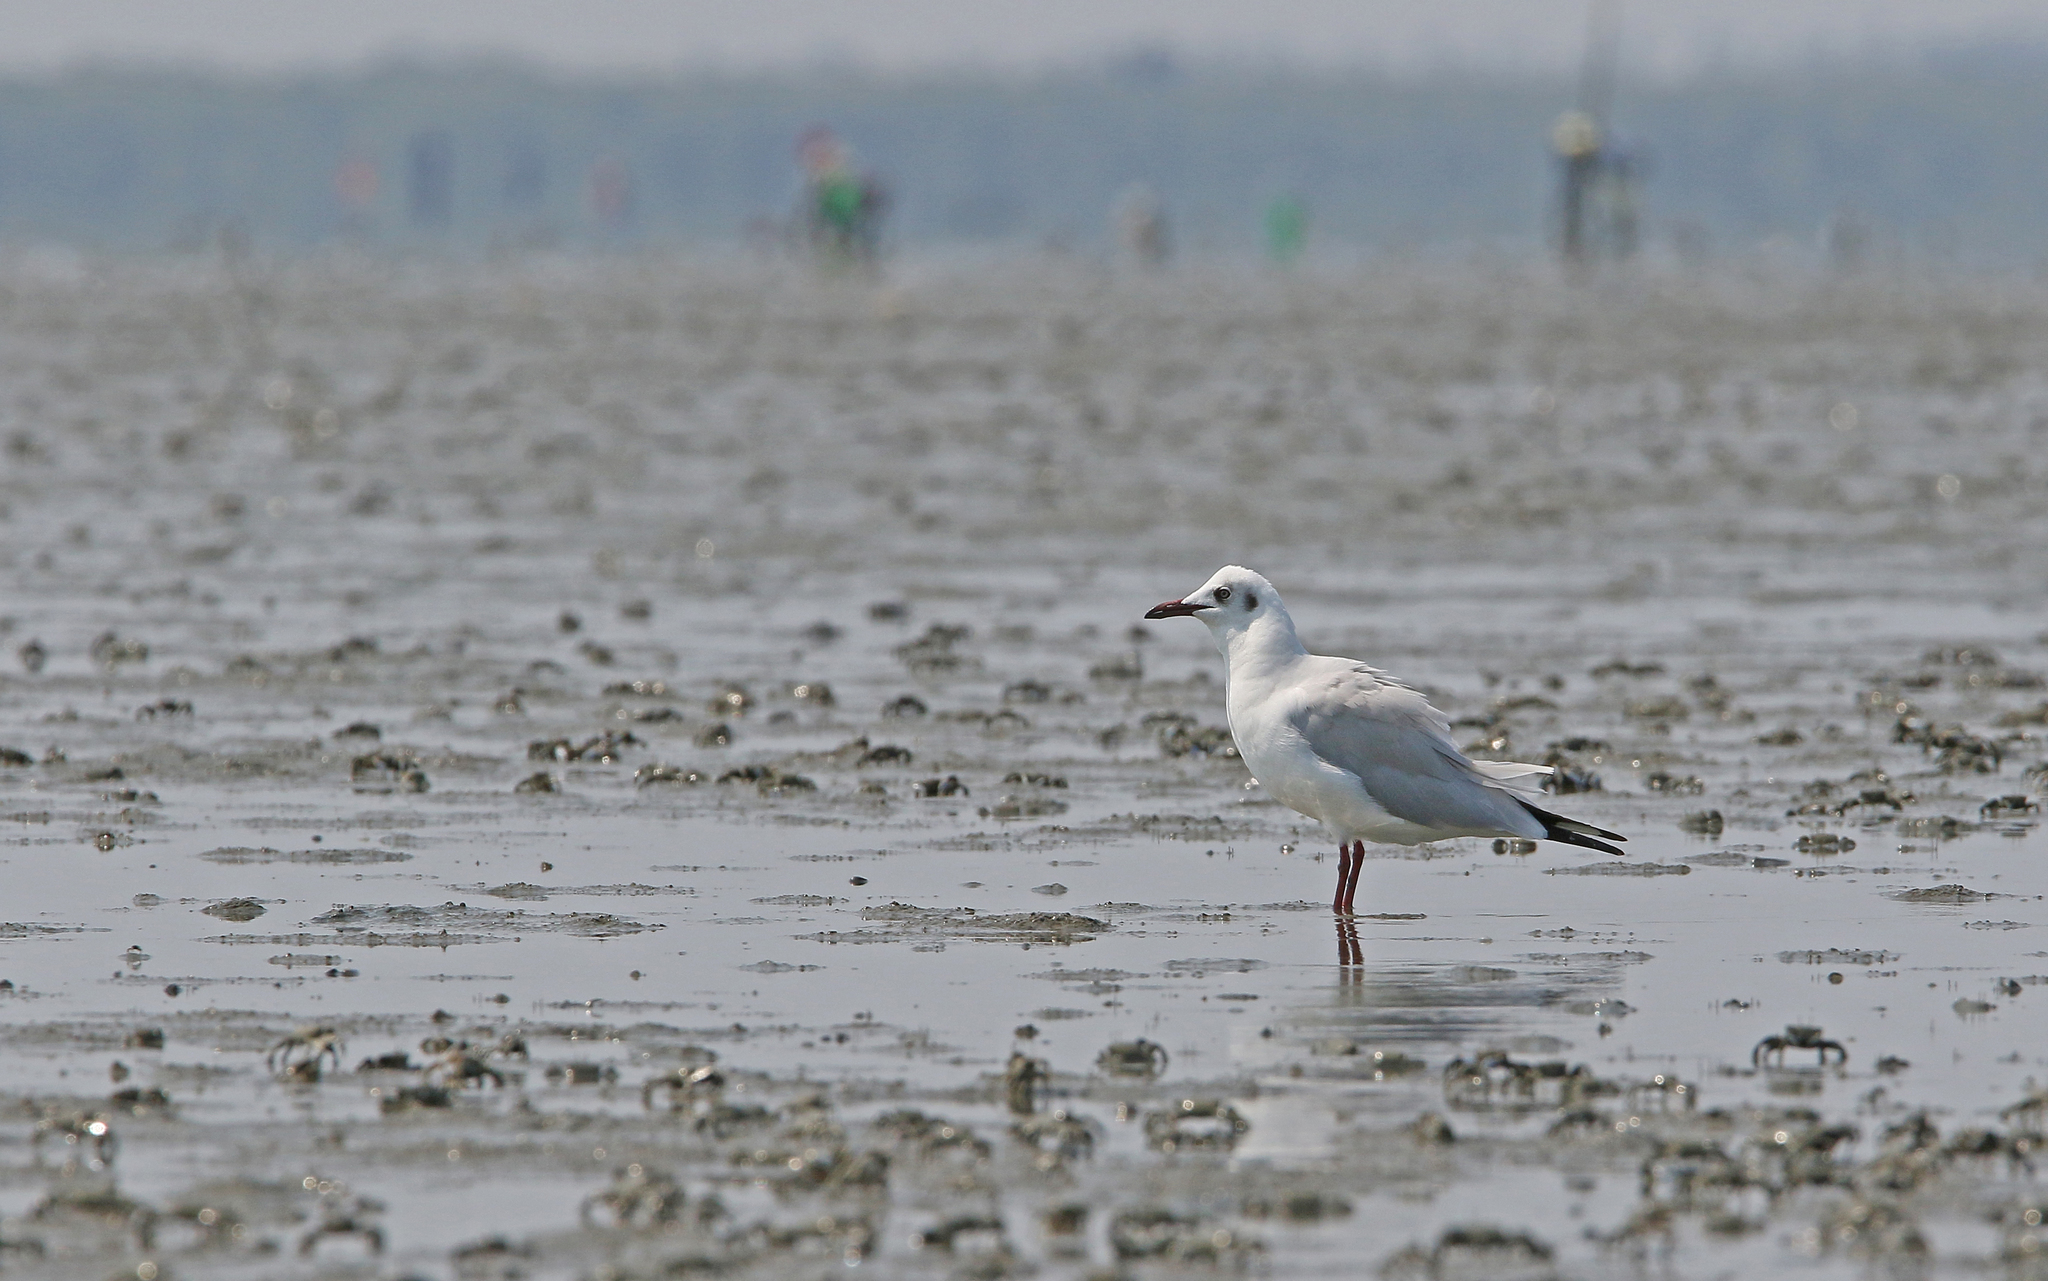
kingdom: Animalia
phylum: Chordata
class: Aves
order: Charadriiformes
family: Laridae
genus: Chroicocephalus
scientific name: Chroicocephalus brunnicephalus
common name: Brown-headed gull
